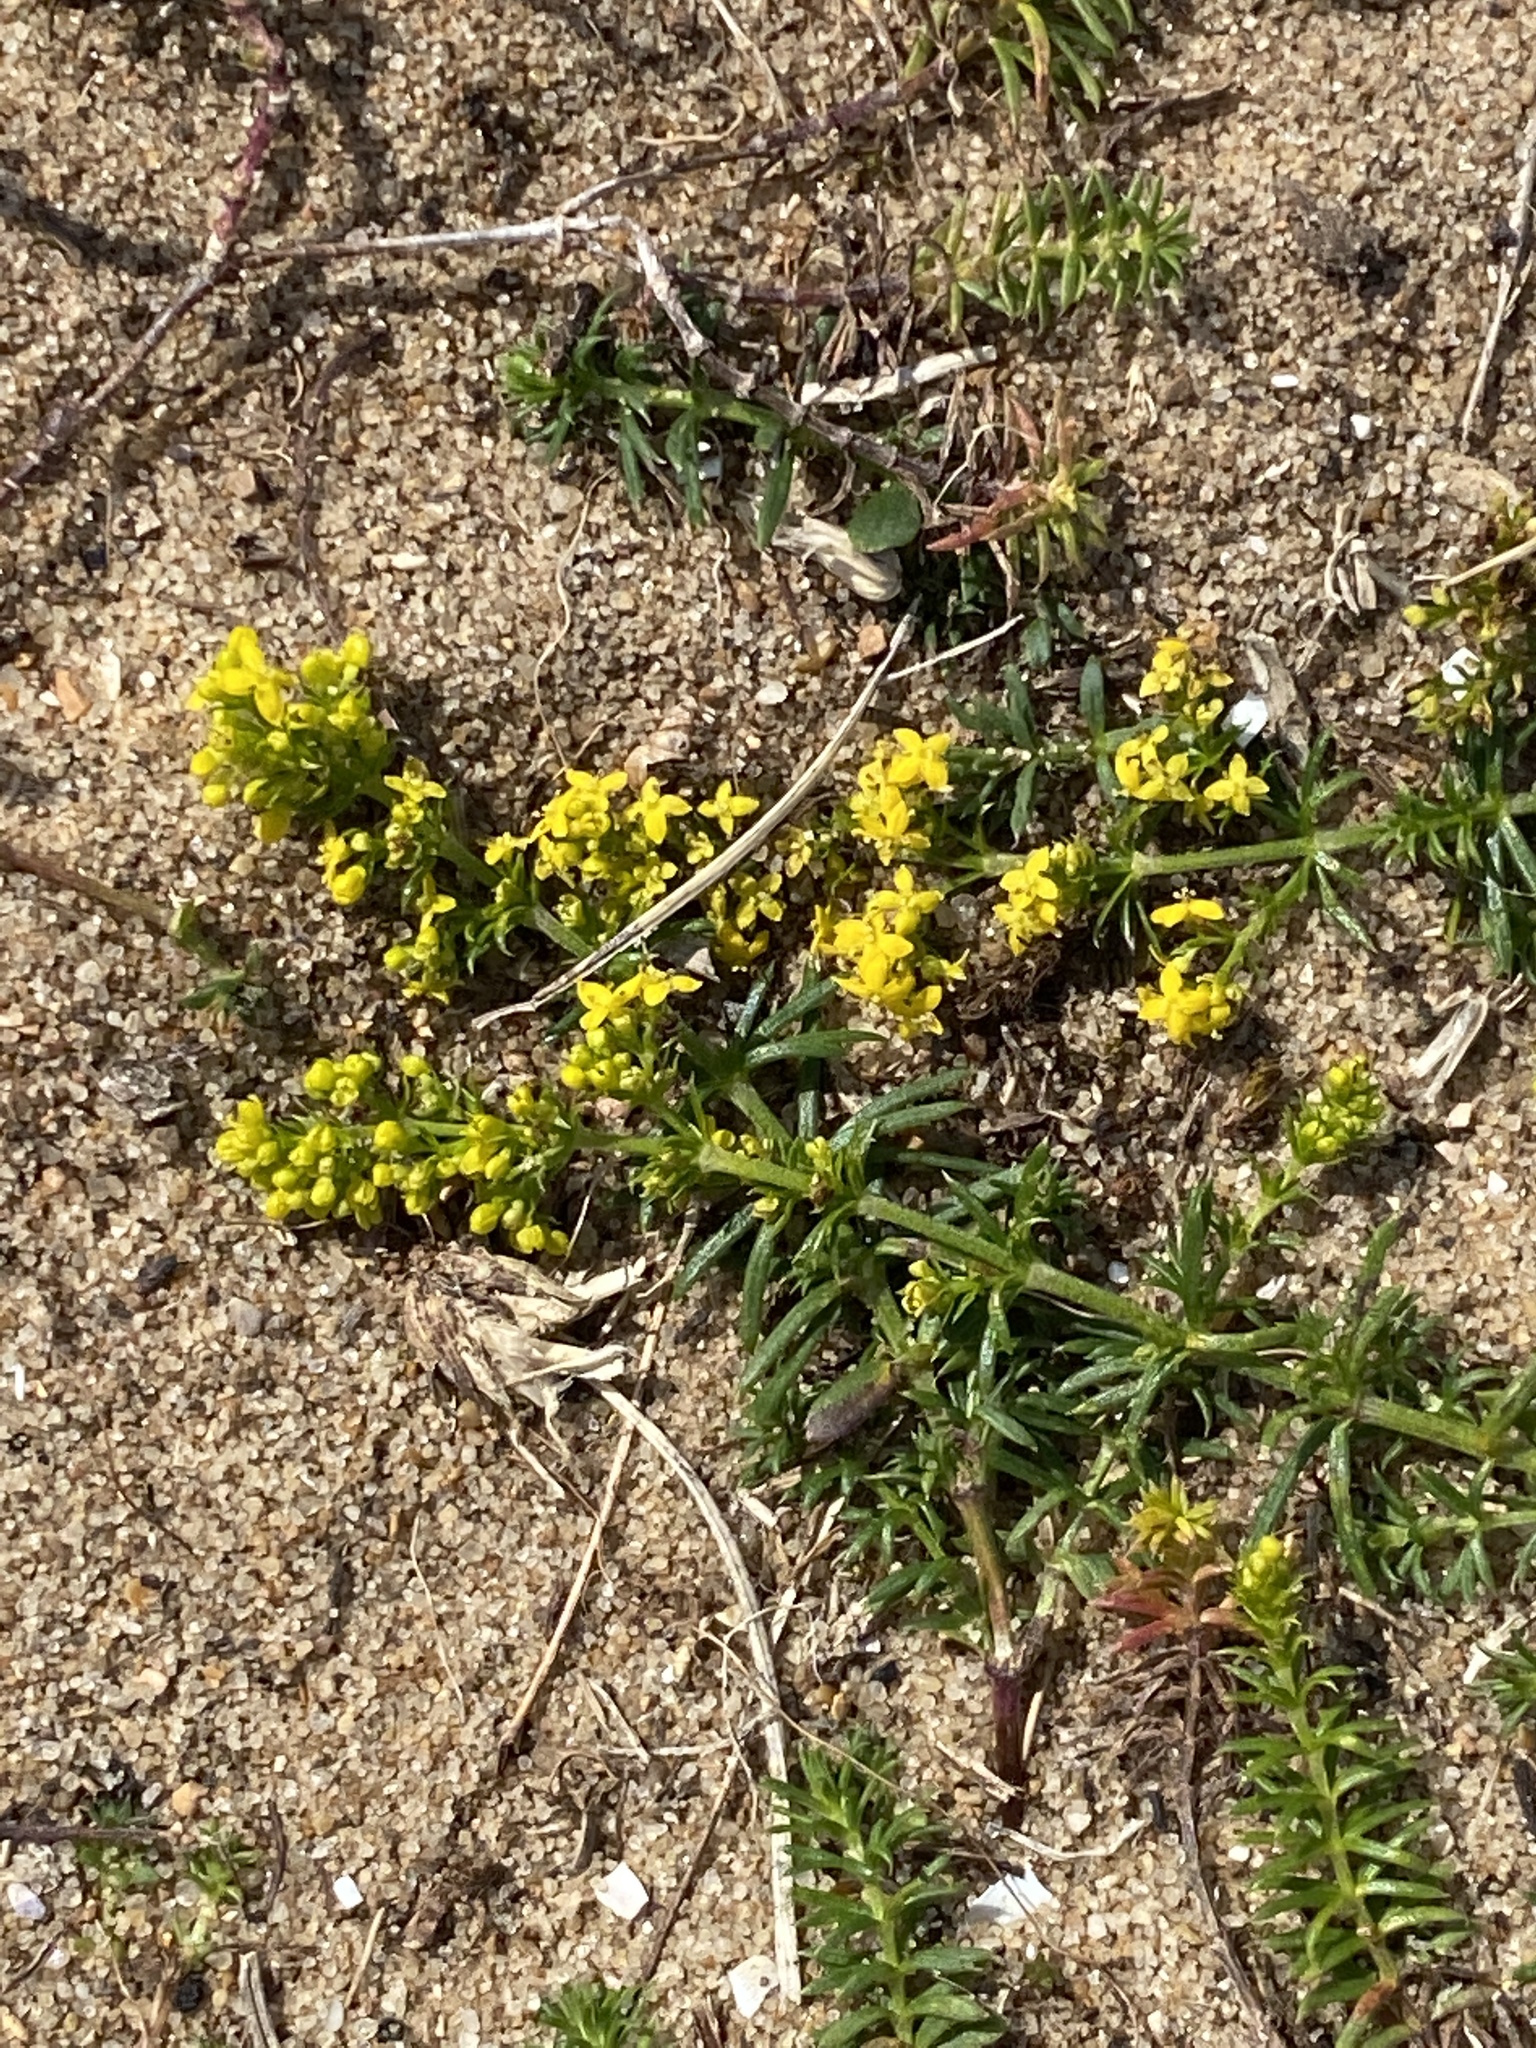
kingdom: Plantae
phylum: Tracheophyta
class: Magnoliopsida
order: Gentianales
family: Rubiaceae
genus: Galium
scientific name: Galium verum
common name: Lady's bedstraw
